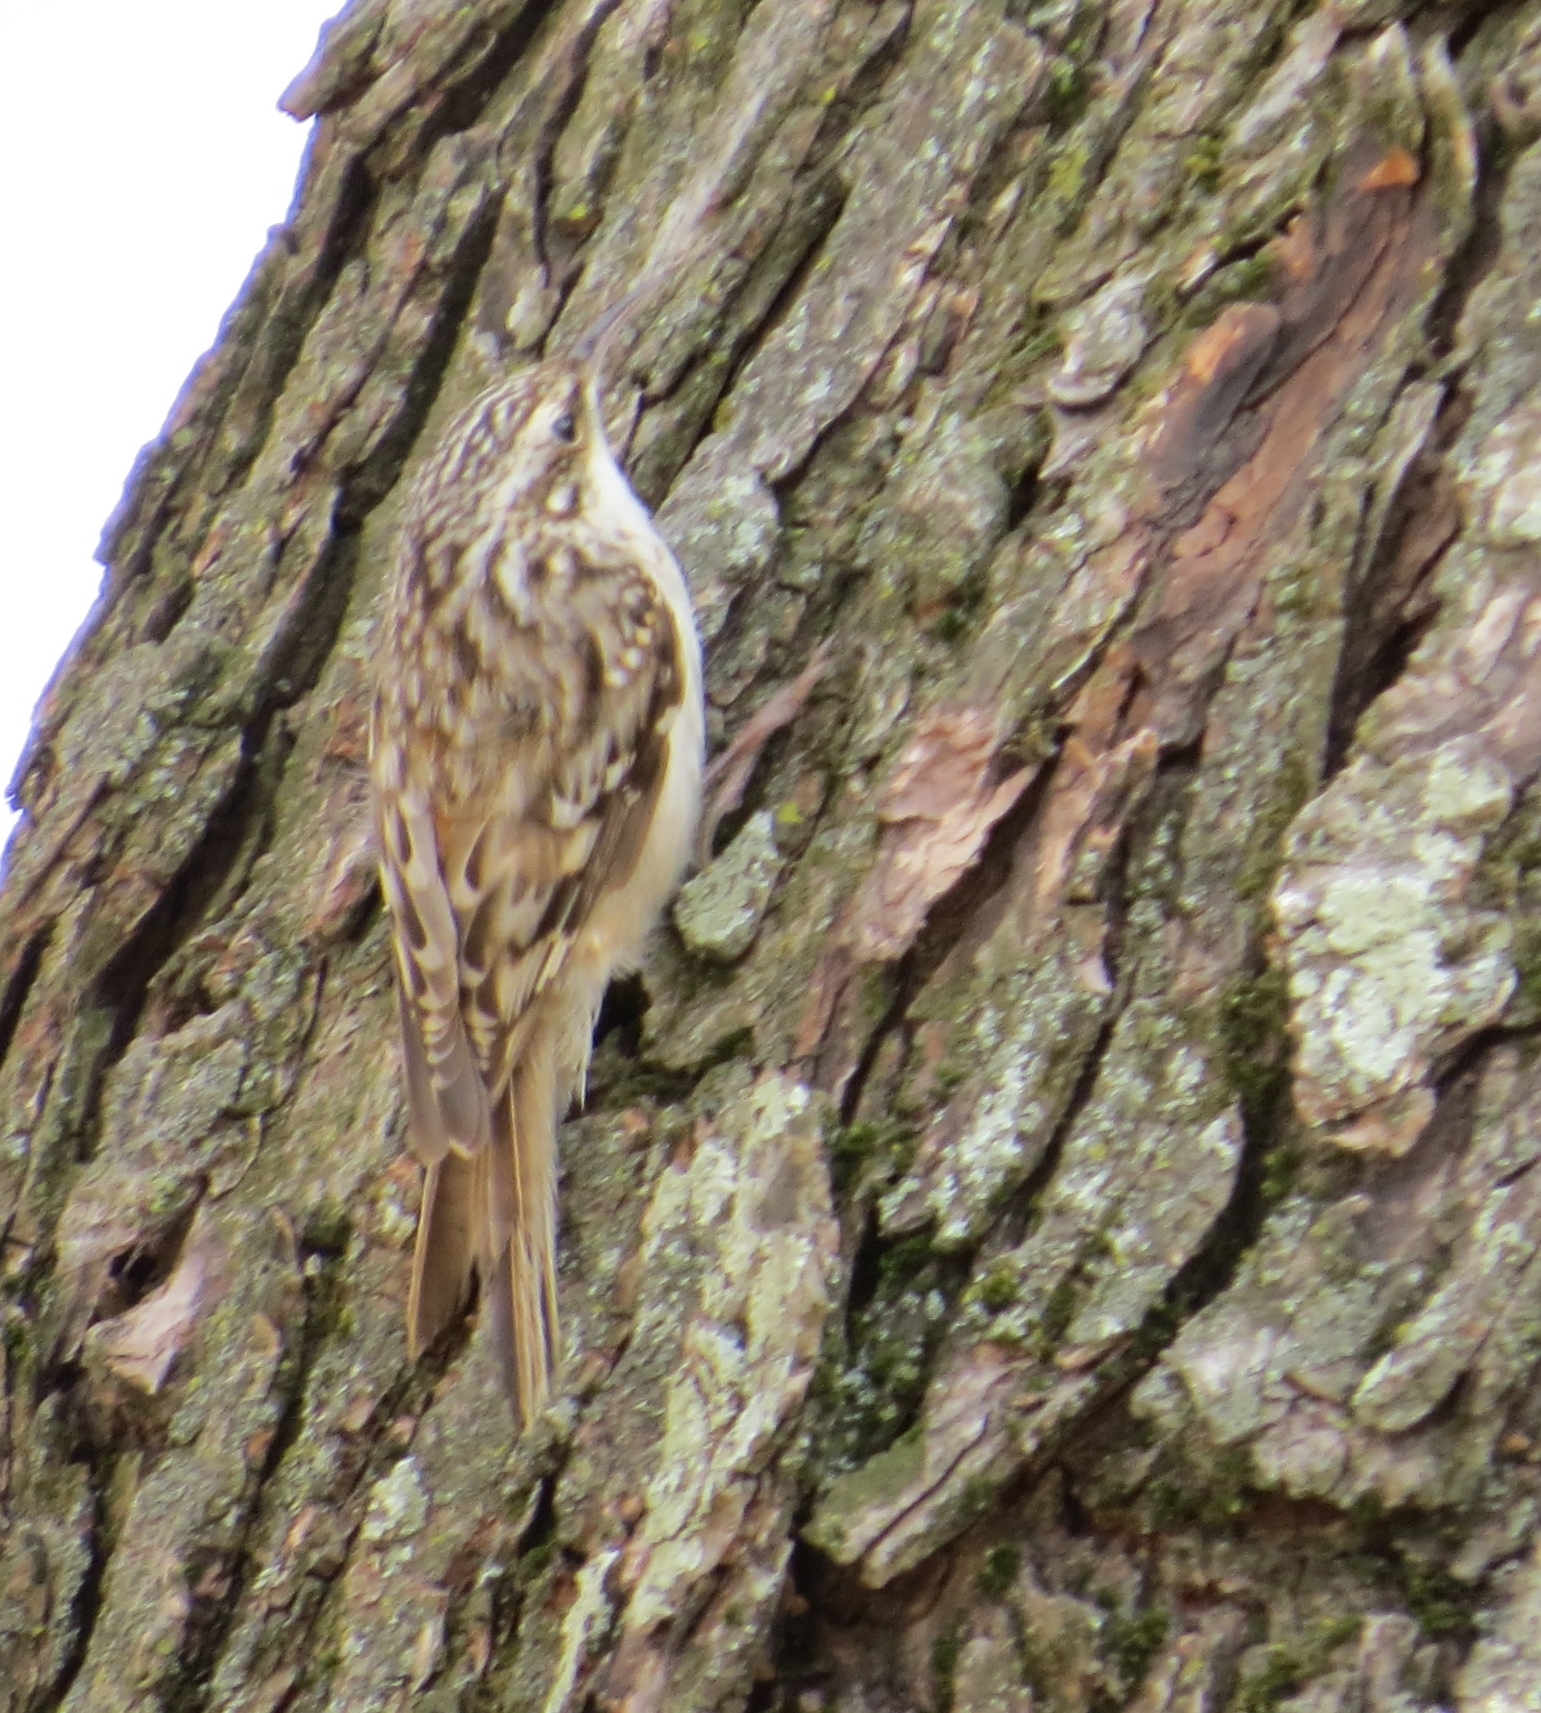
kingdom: Animalia
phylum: Chordata
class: Aves
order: Passeriformes
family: Certhiidae
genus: Certhia
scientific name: Certhia americana
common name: Brown creeper
